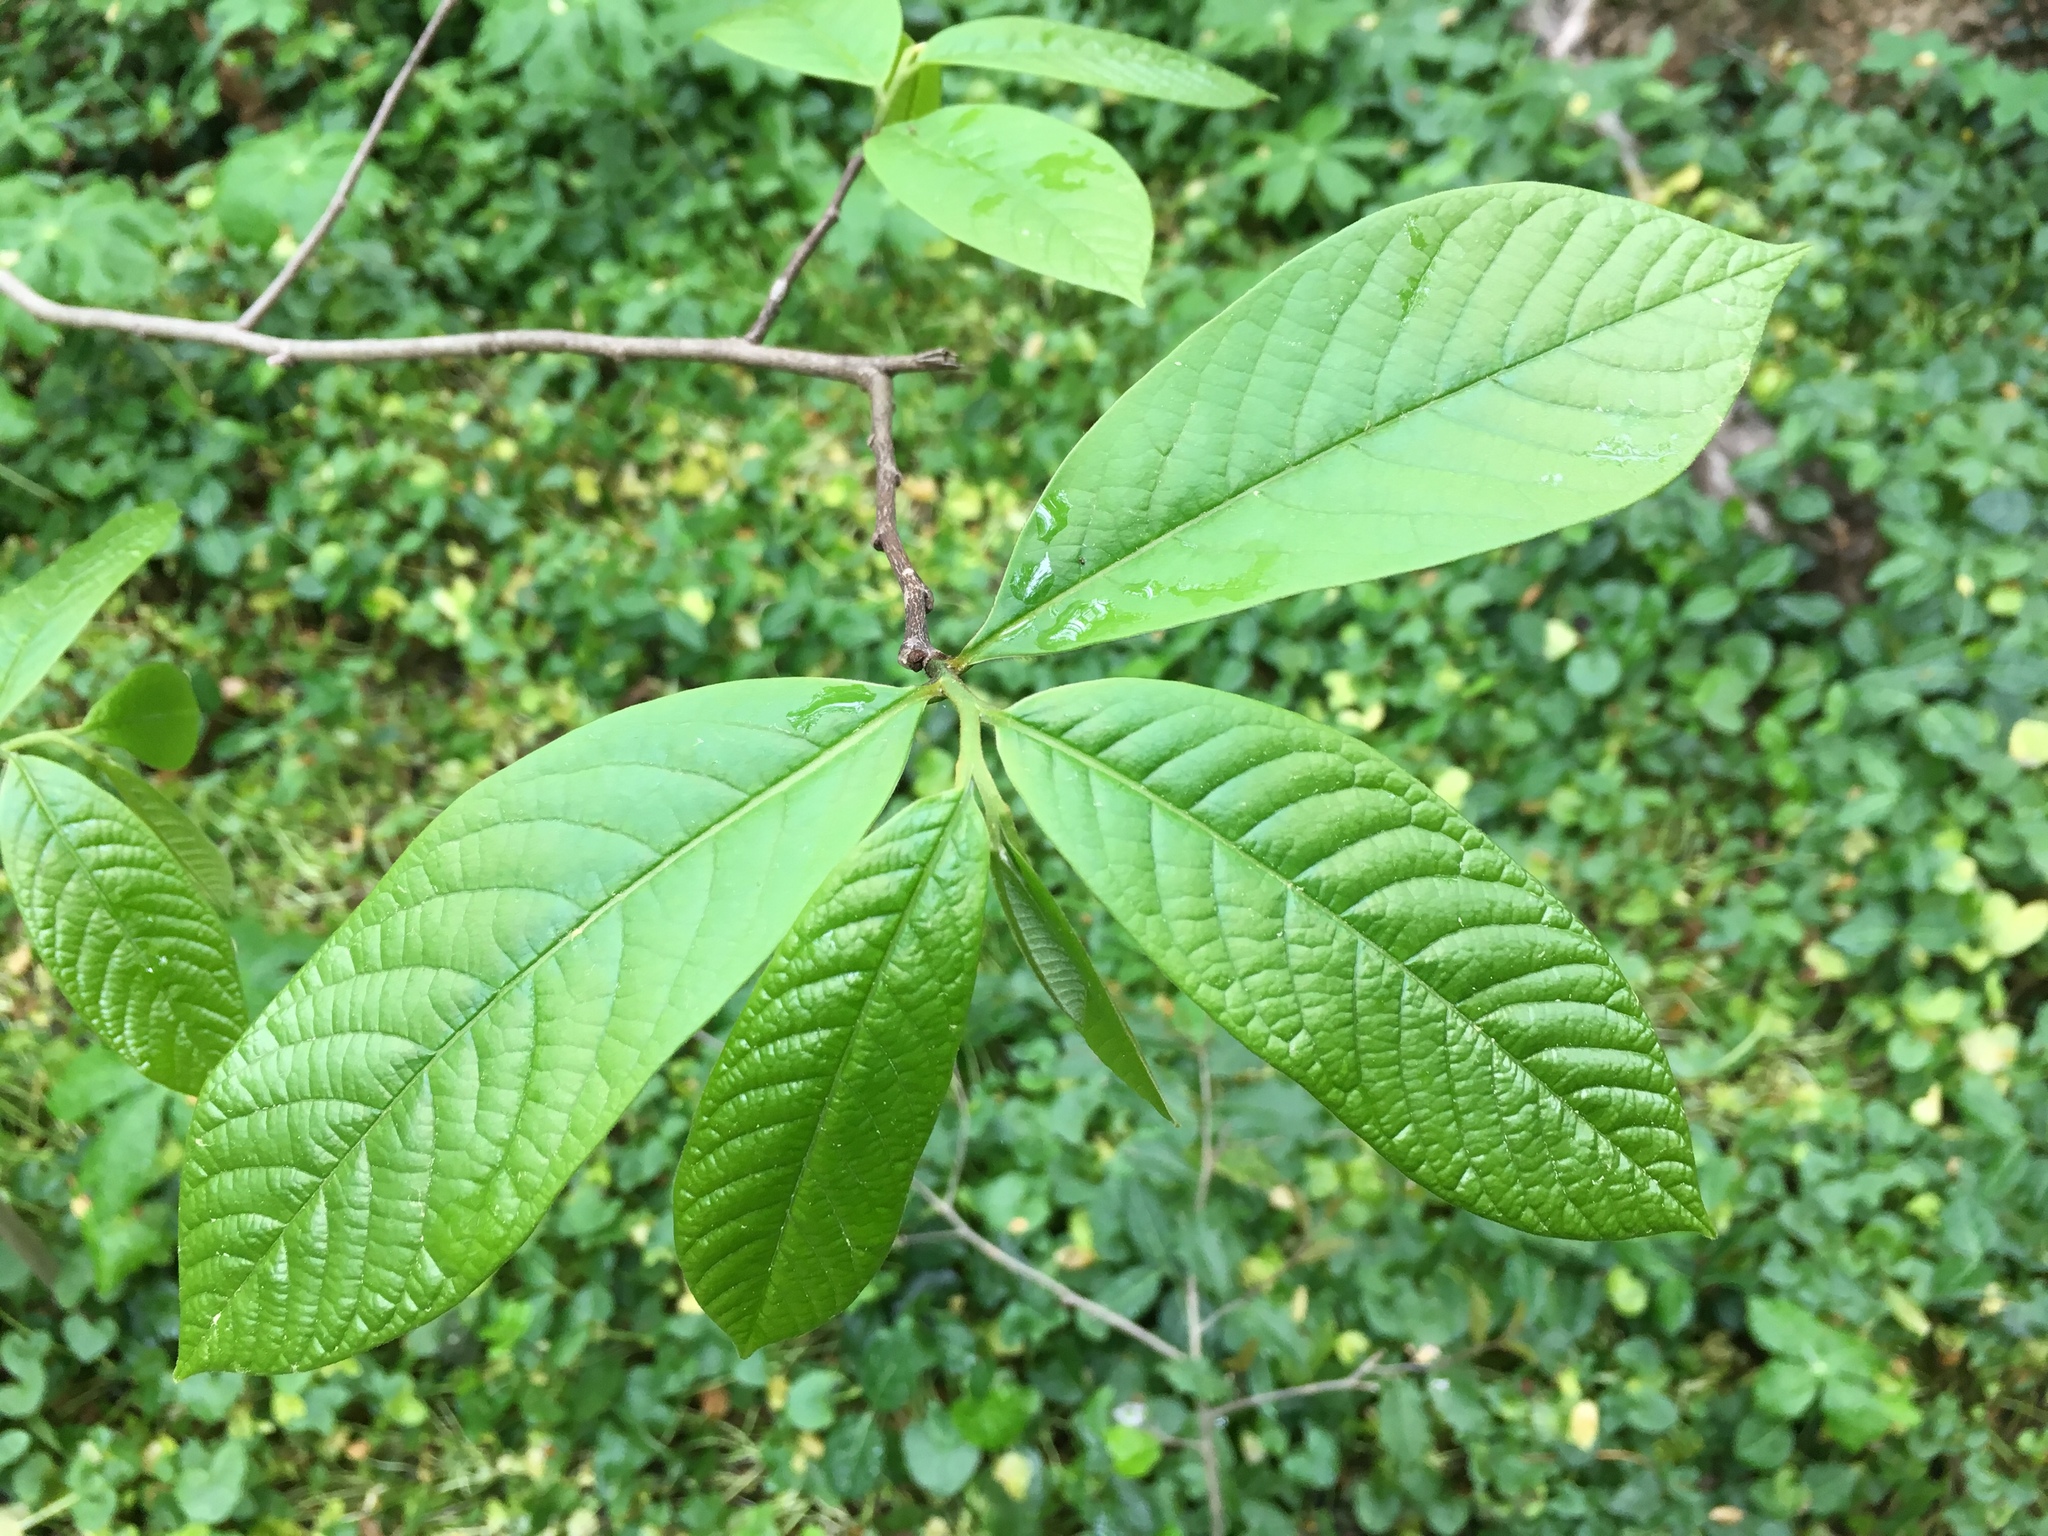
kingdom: Plantae
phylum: Tracheophyta
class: Magnoliopsida
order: Magnoliales
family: Annonaceae
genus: Asimina
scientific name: Asimina triloba
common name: Dog-banana
